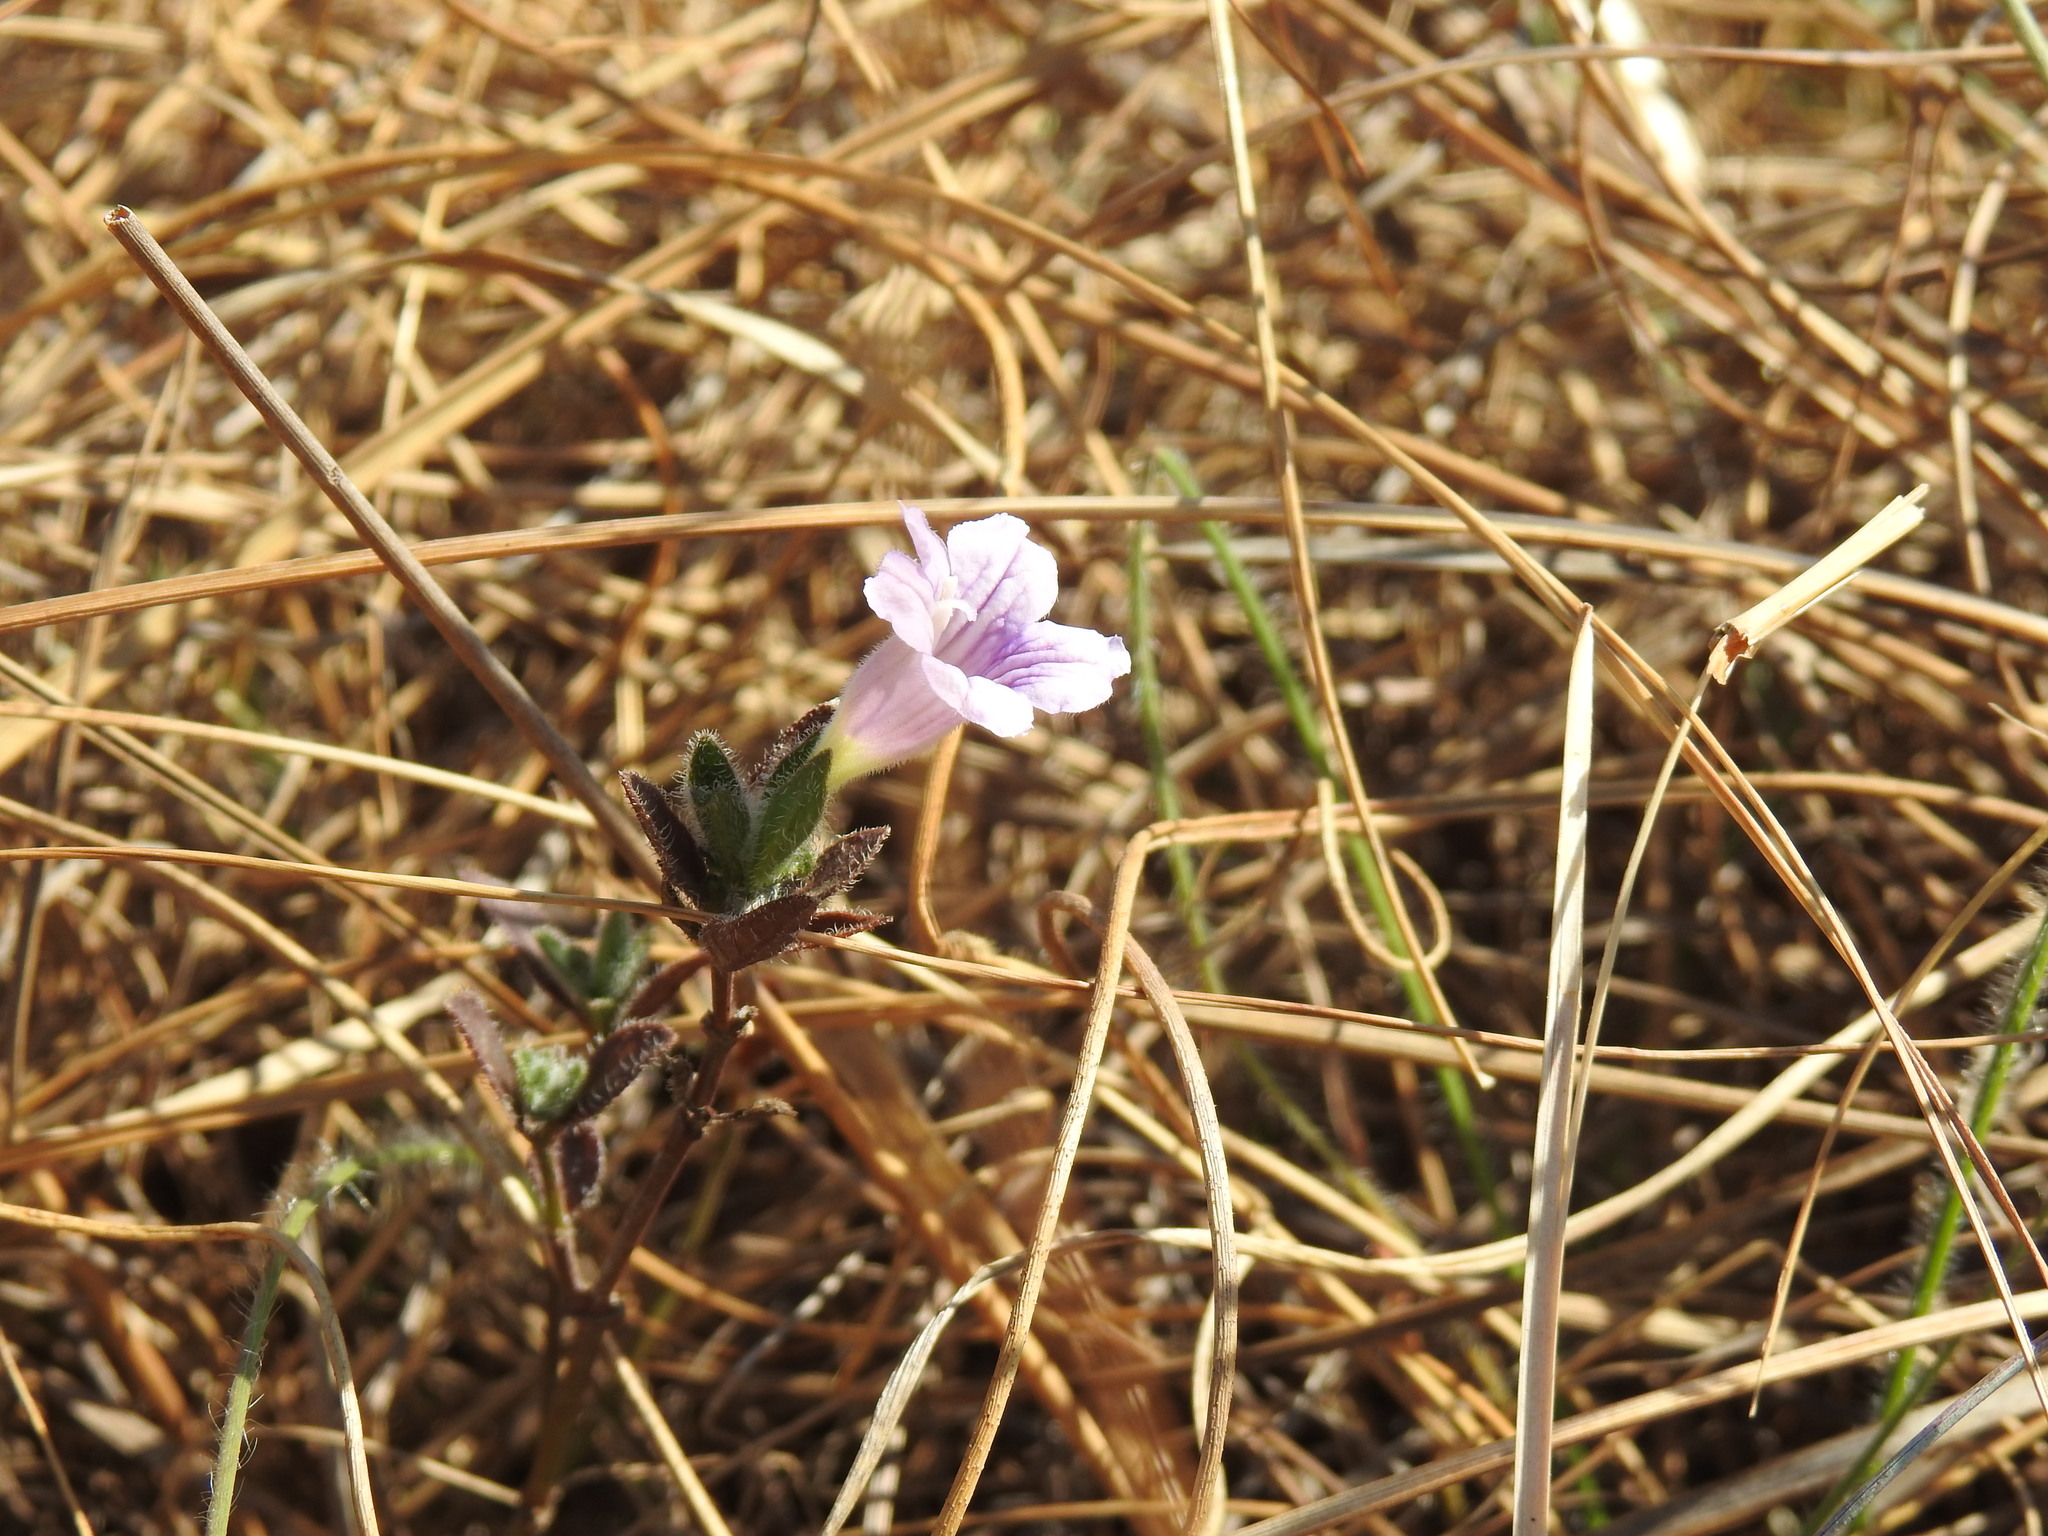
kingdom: Plantae
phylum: Tracheophyta
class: Magnoliopsida
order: Lamiales
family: Acanthaceae
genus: Ruellia
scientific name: Ruellia cordata
